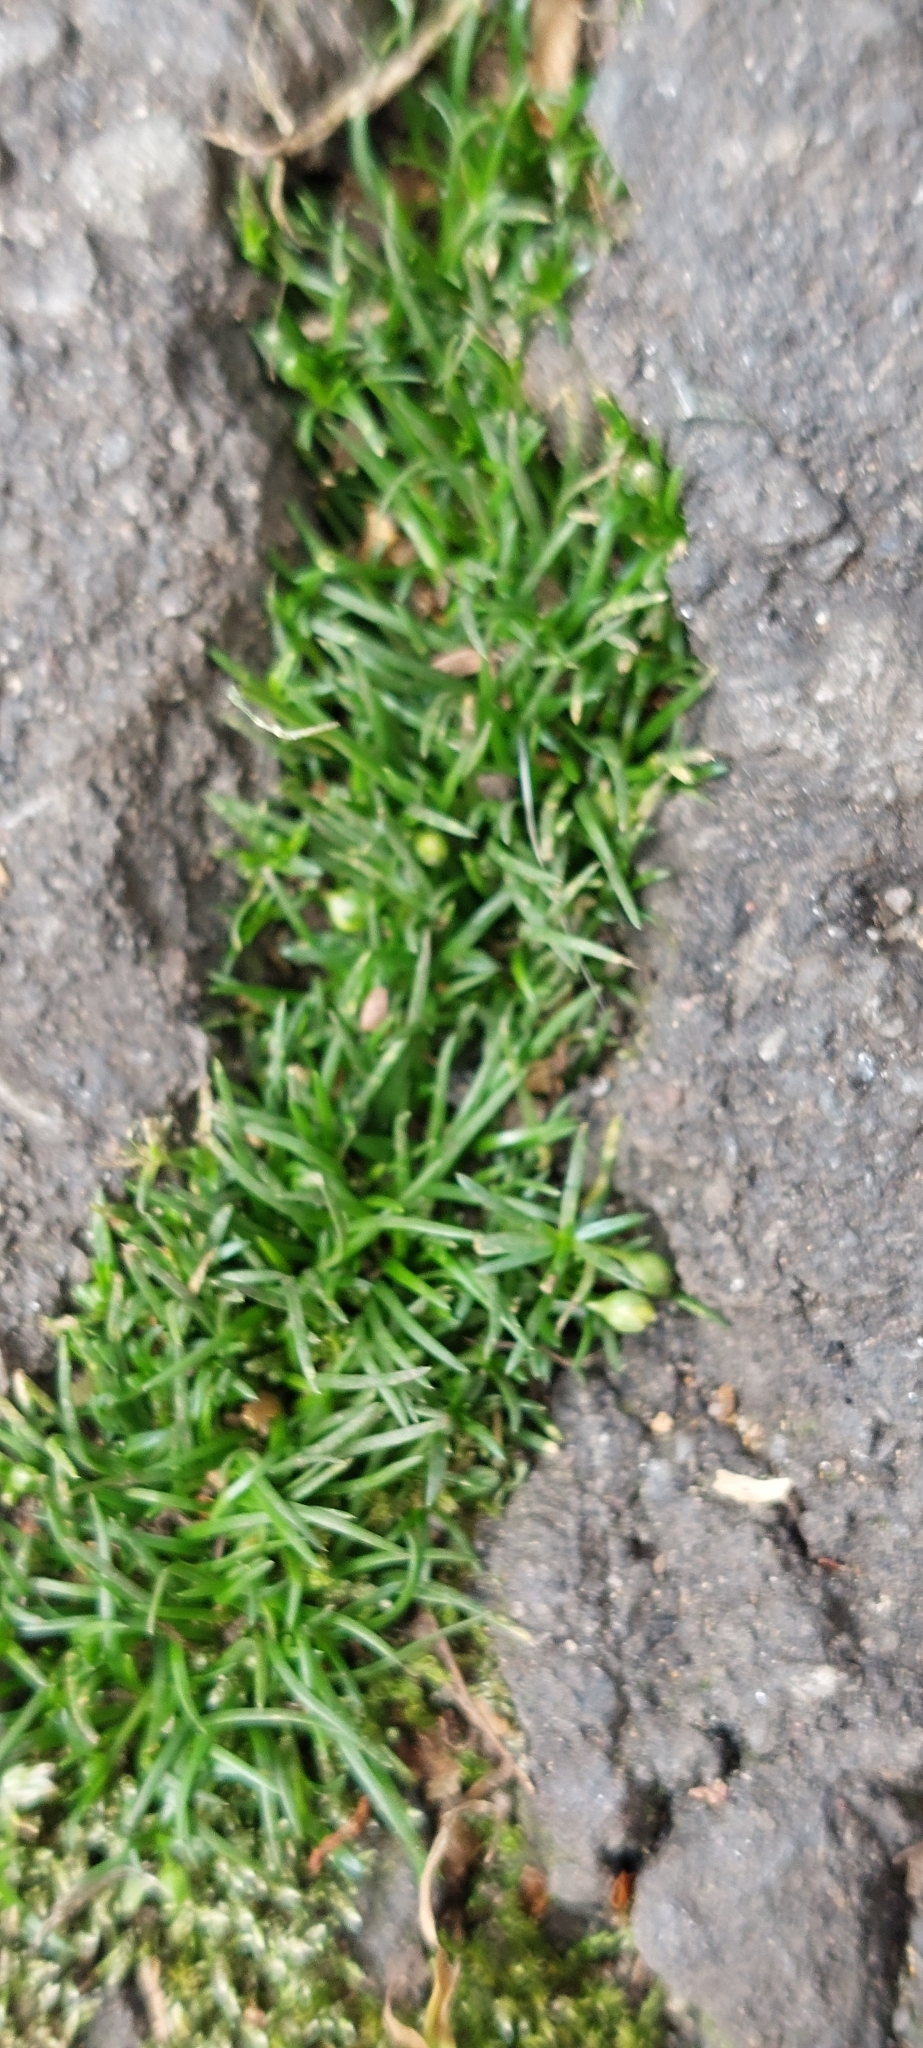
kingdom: Plantae
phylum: Tracheophyta
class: Magnoliopsida
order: Caryophyllales
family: Caryophyllaceae
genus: Sagina
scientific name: Sagina procumbens
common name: Procumbent pearlwort
